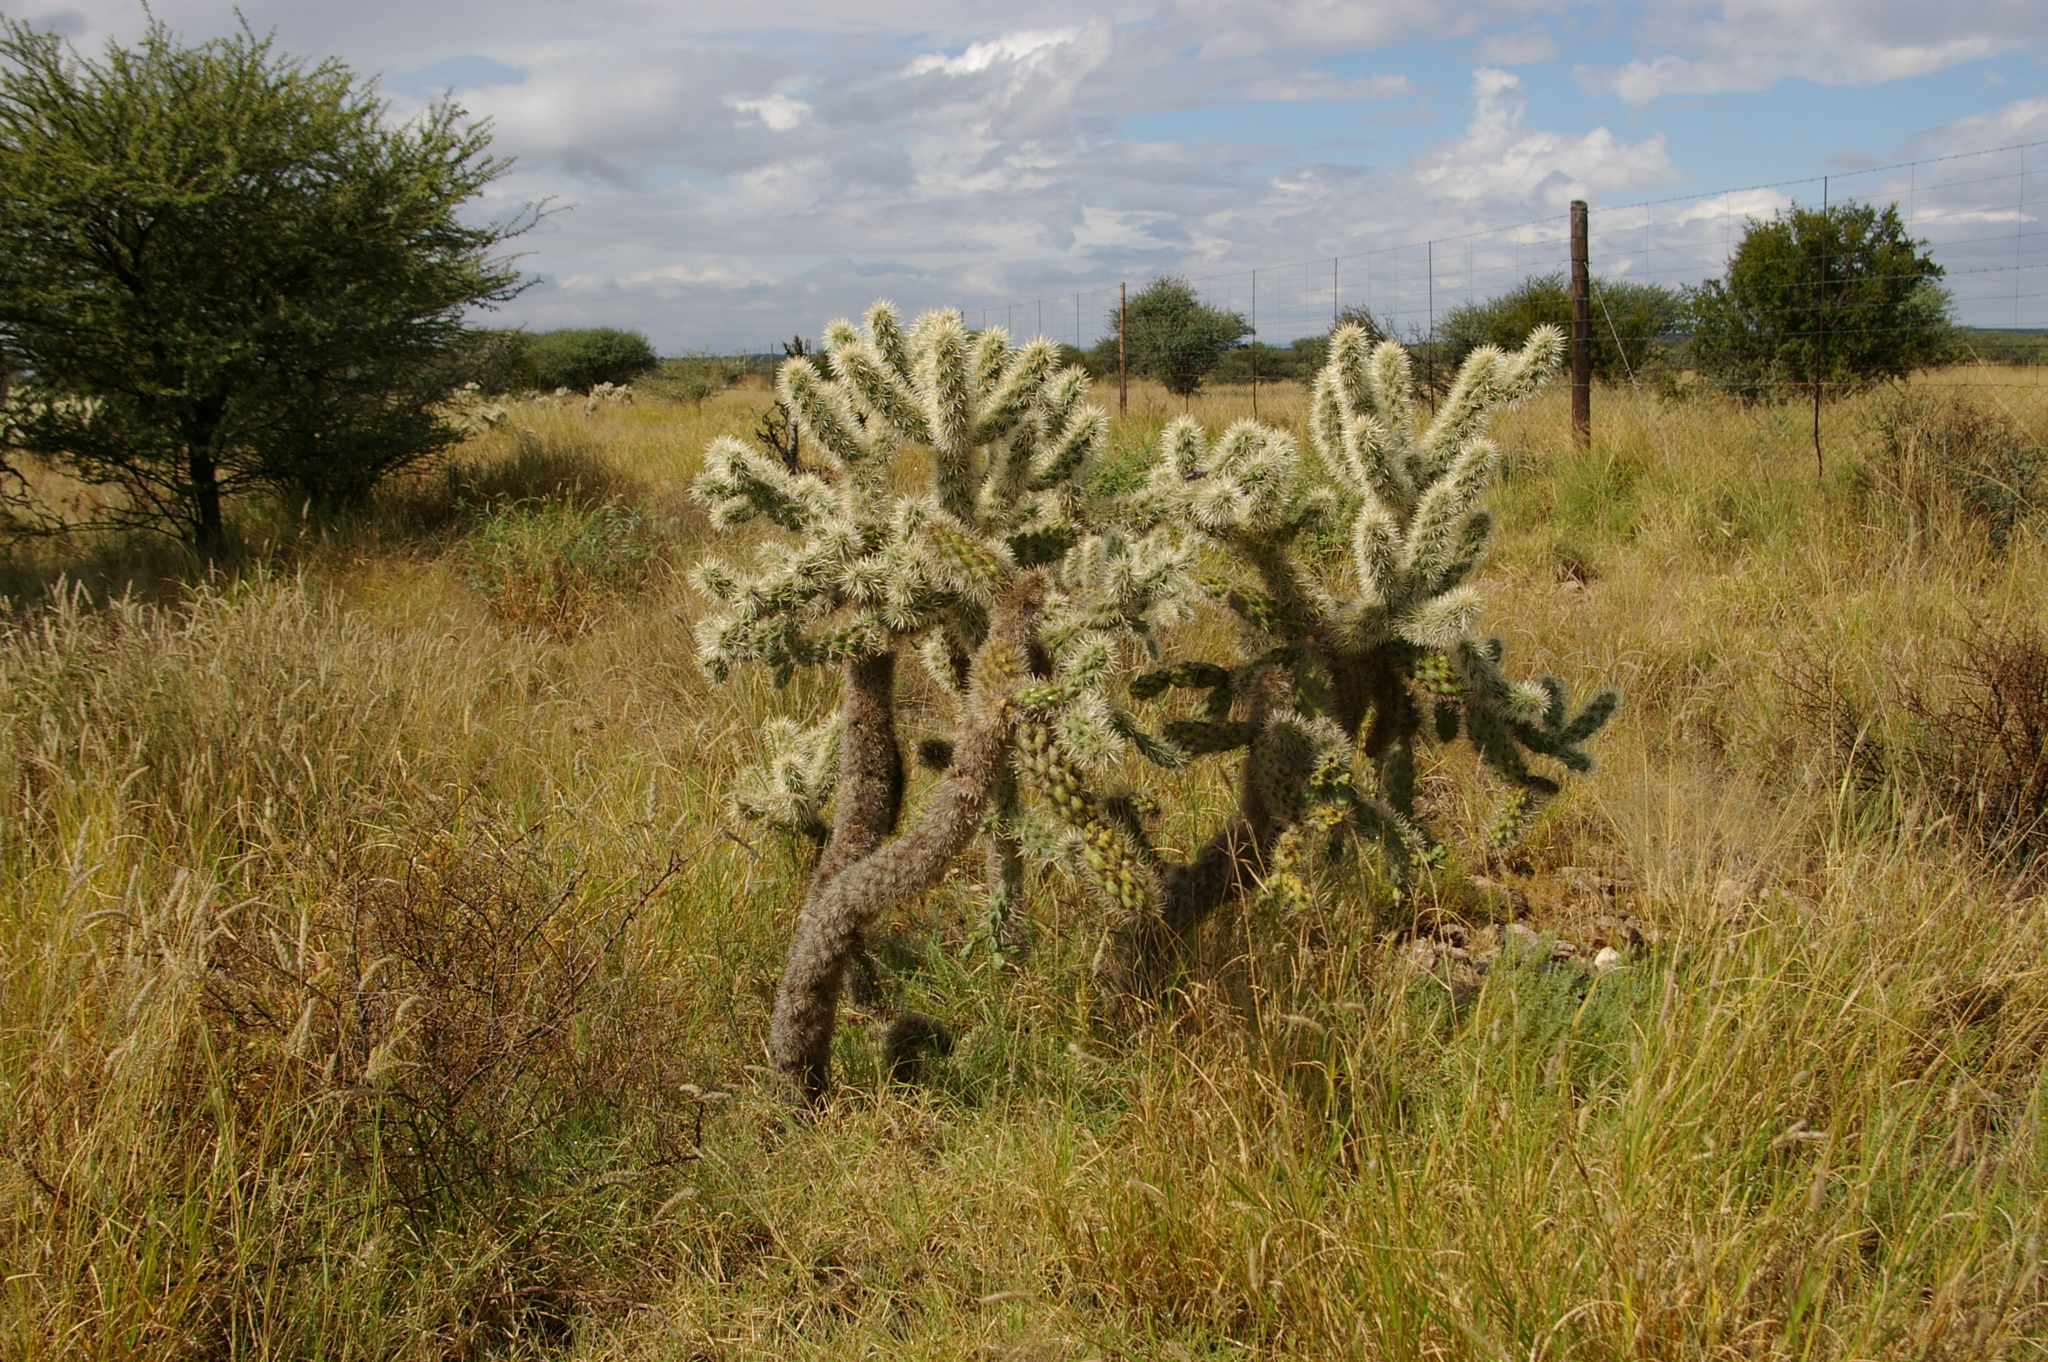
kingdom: Plantae
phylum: Tracheophyta
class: Magnoliopsida
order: Caryophyllales
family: Cactaceae
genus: Cylindropuntia
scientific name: Cylindropuntia fulgida
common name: Jumping cholla
